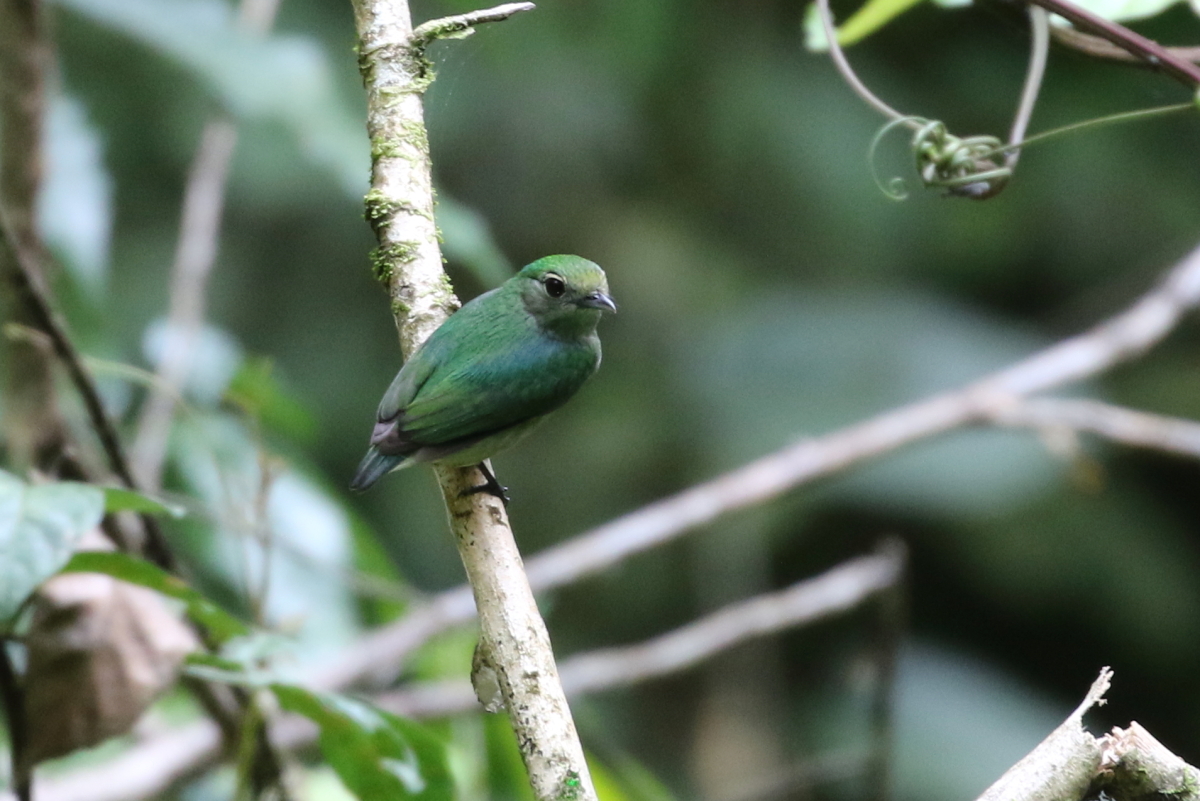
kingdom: Animalia
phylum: Chordata
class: Aves
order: Passeriformes
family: Pipridae
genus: Lepidothrix
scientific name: Lepidothrix coronata
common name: Blue-crowned manakin
